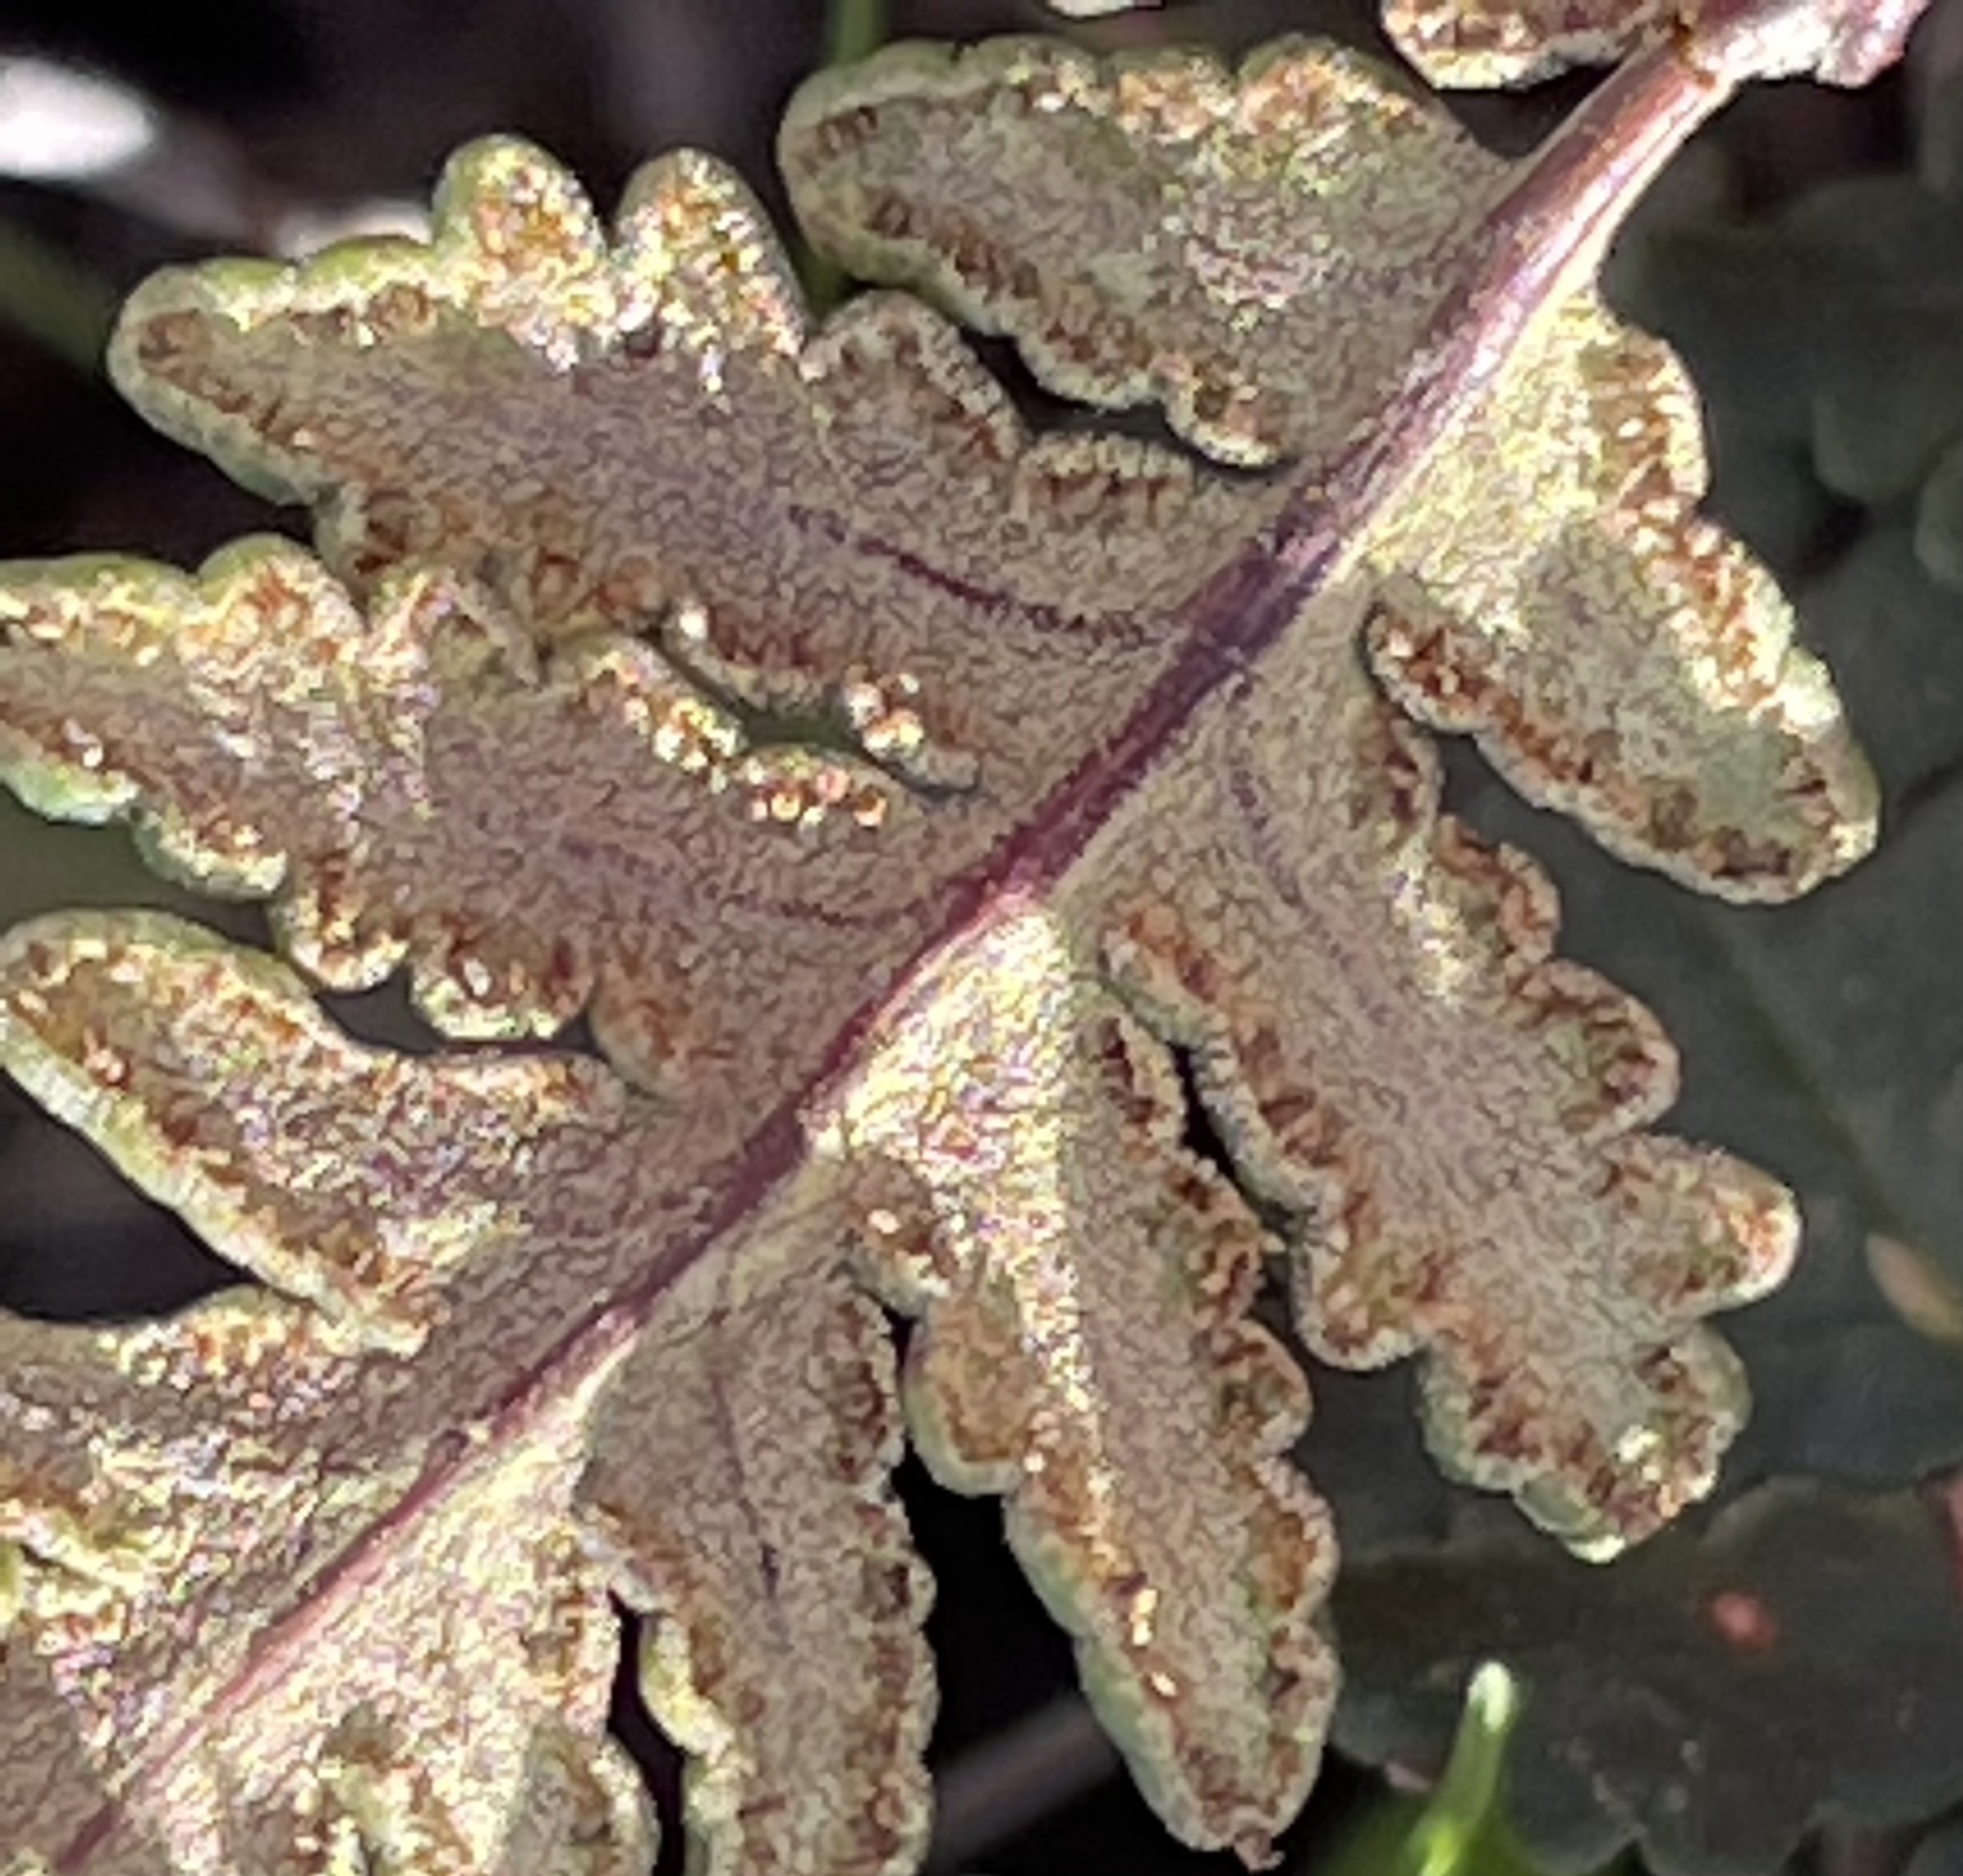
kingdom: Plantae
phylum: Tracheophyta
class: Polypodiopsida
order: Polypodiales
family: Pteridaceae
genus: Notholaena
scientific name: Notholaena standleyi
